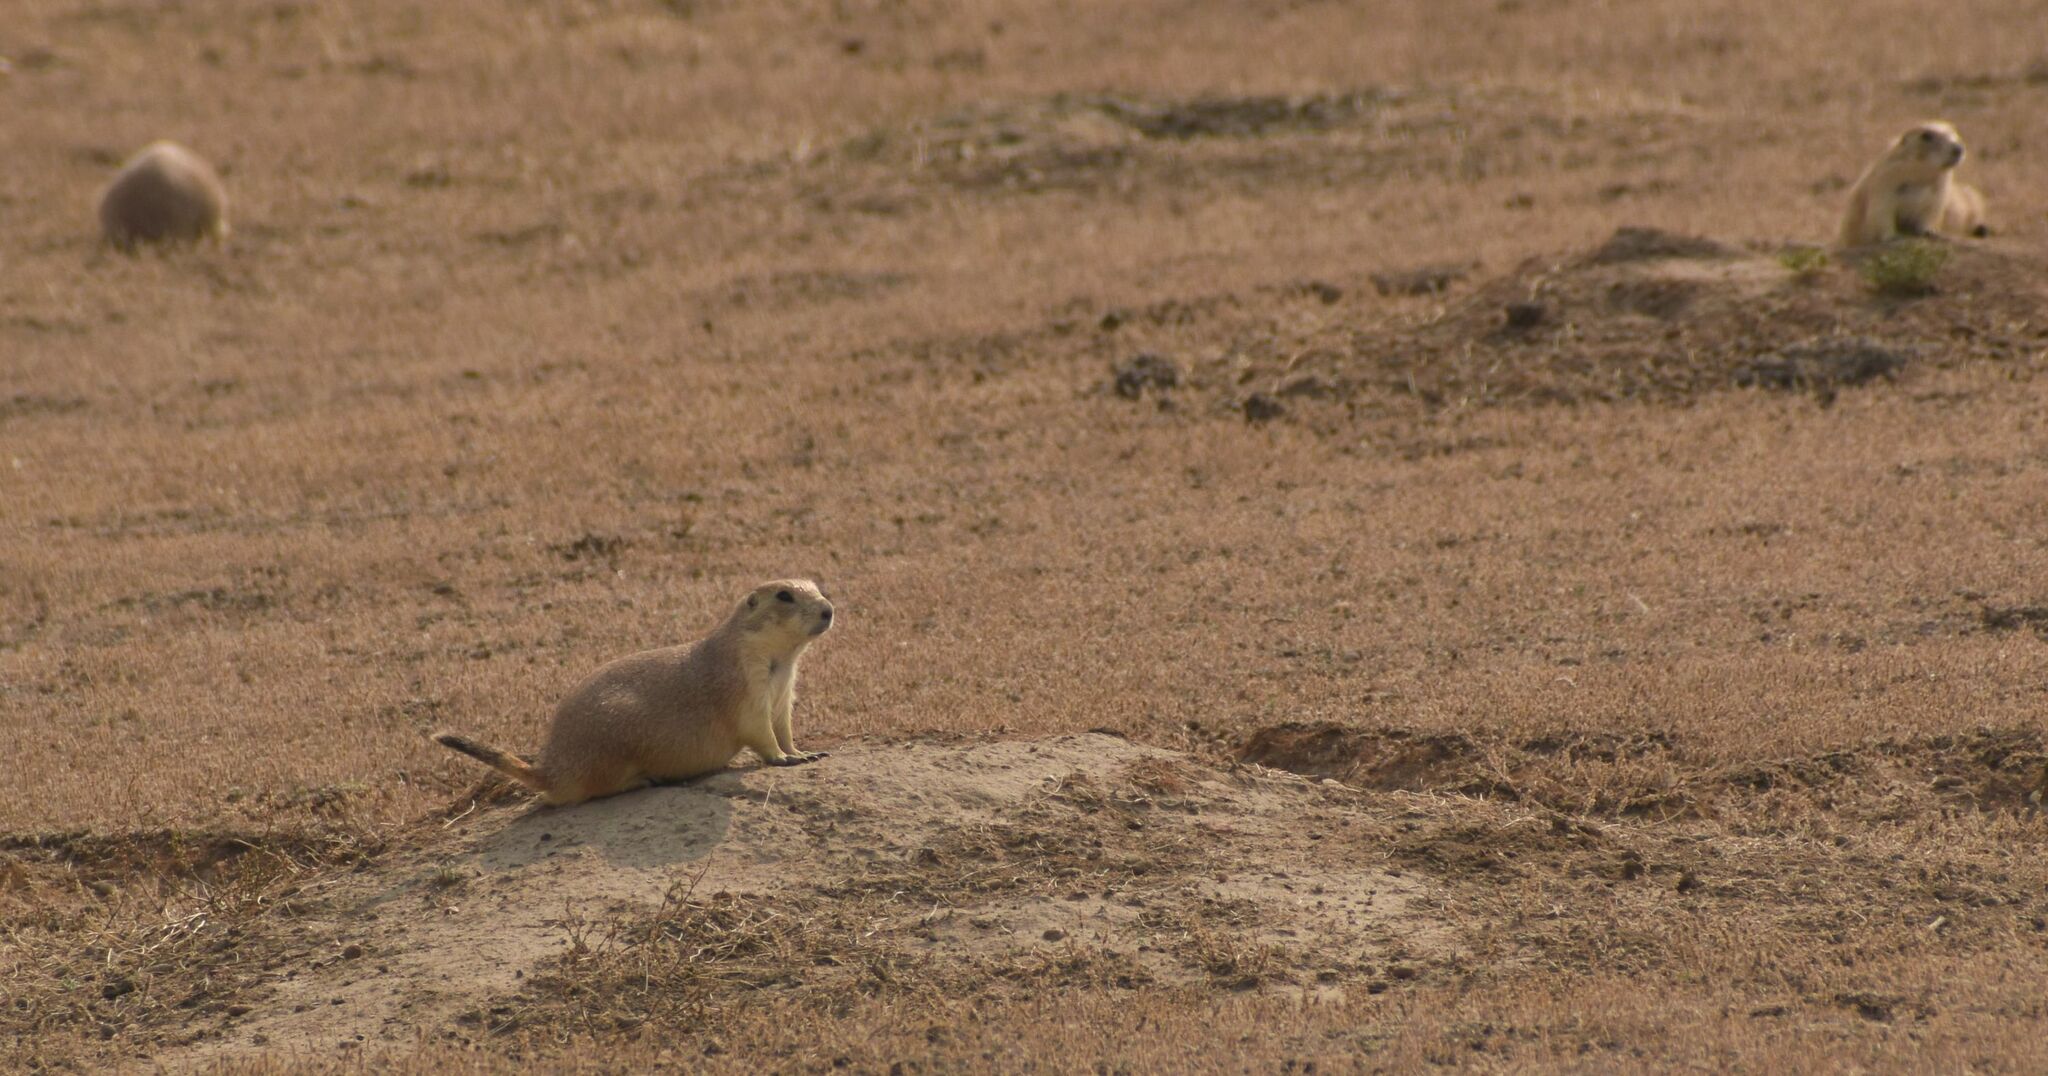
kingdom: Animalia
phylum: Chordata
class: Mammalia
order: Rodentia
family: Sciuridae
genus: Cynomys
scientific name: Cynomys ludovicianus
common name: Black-tailed prairie dog
